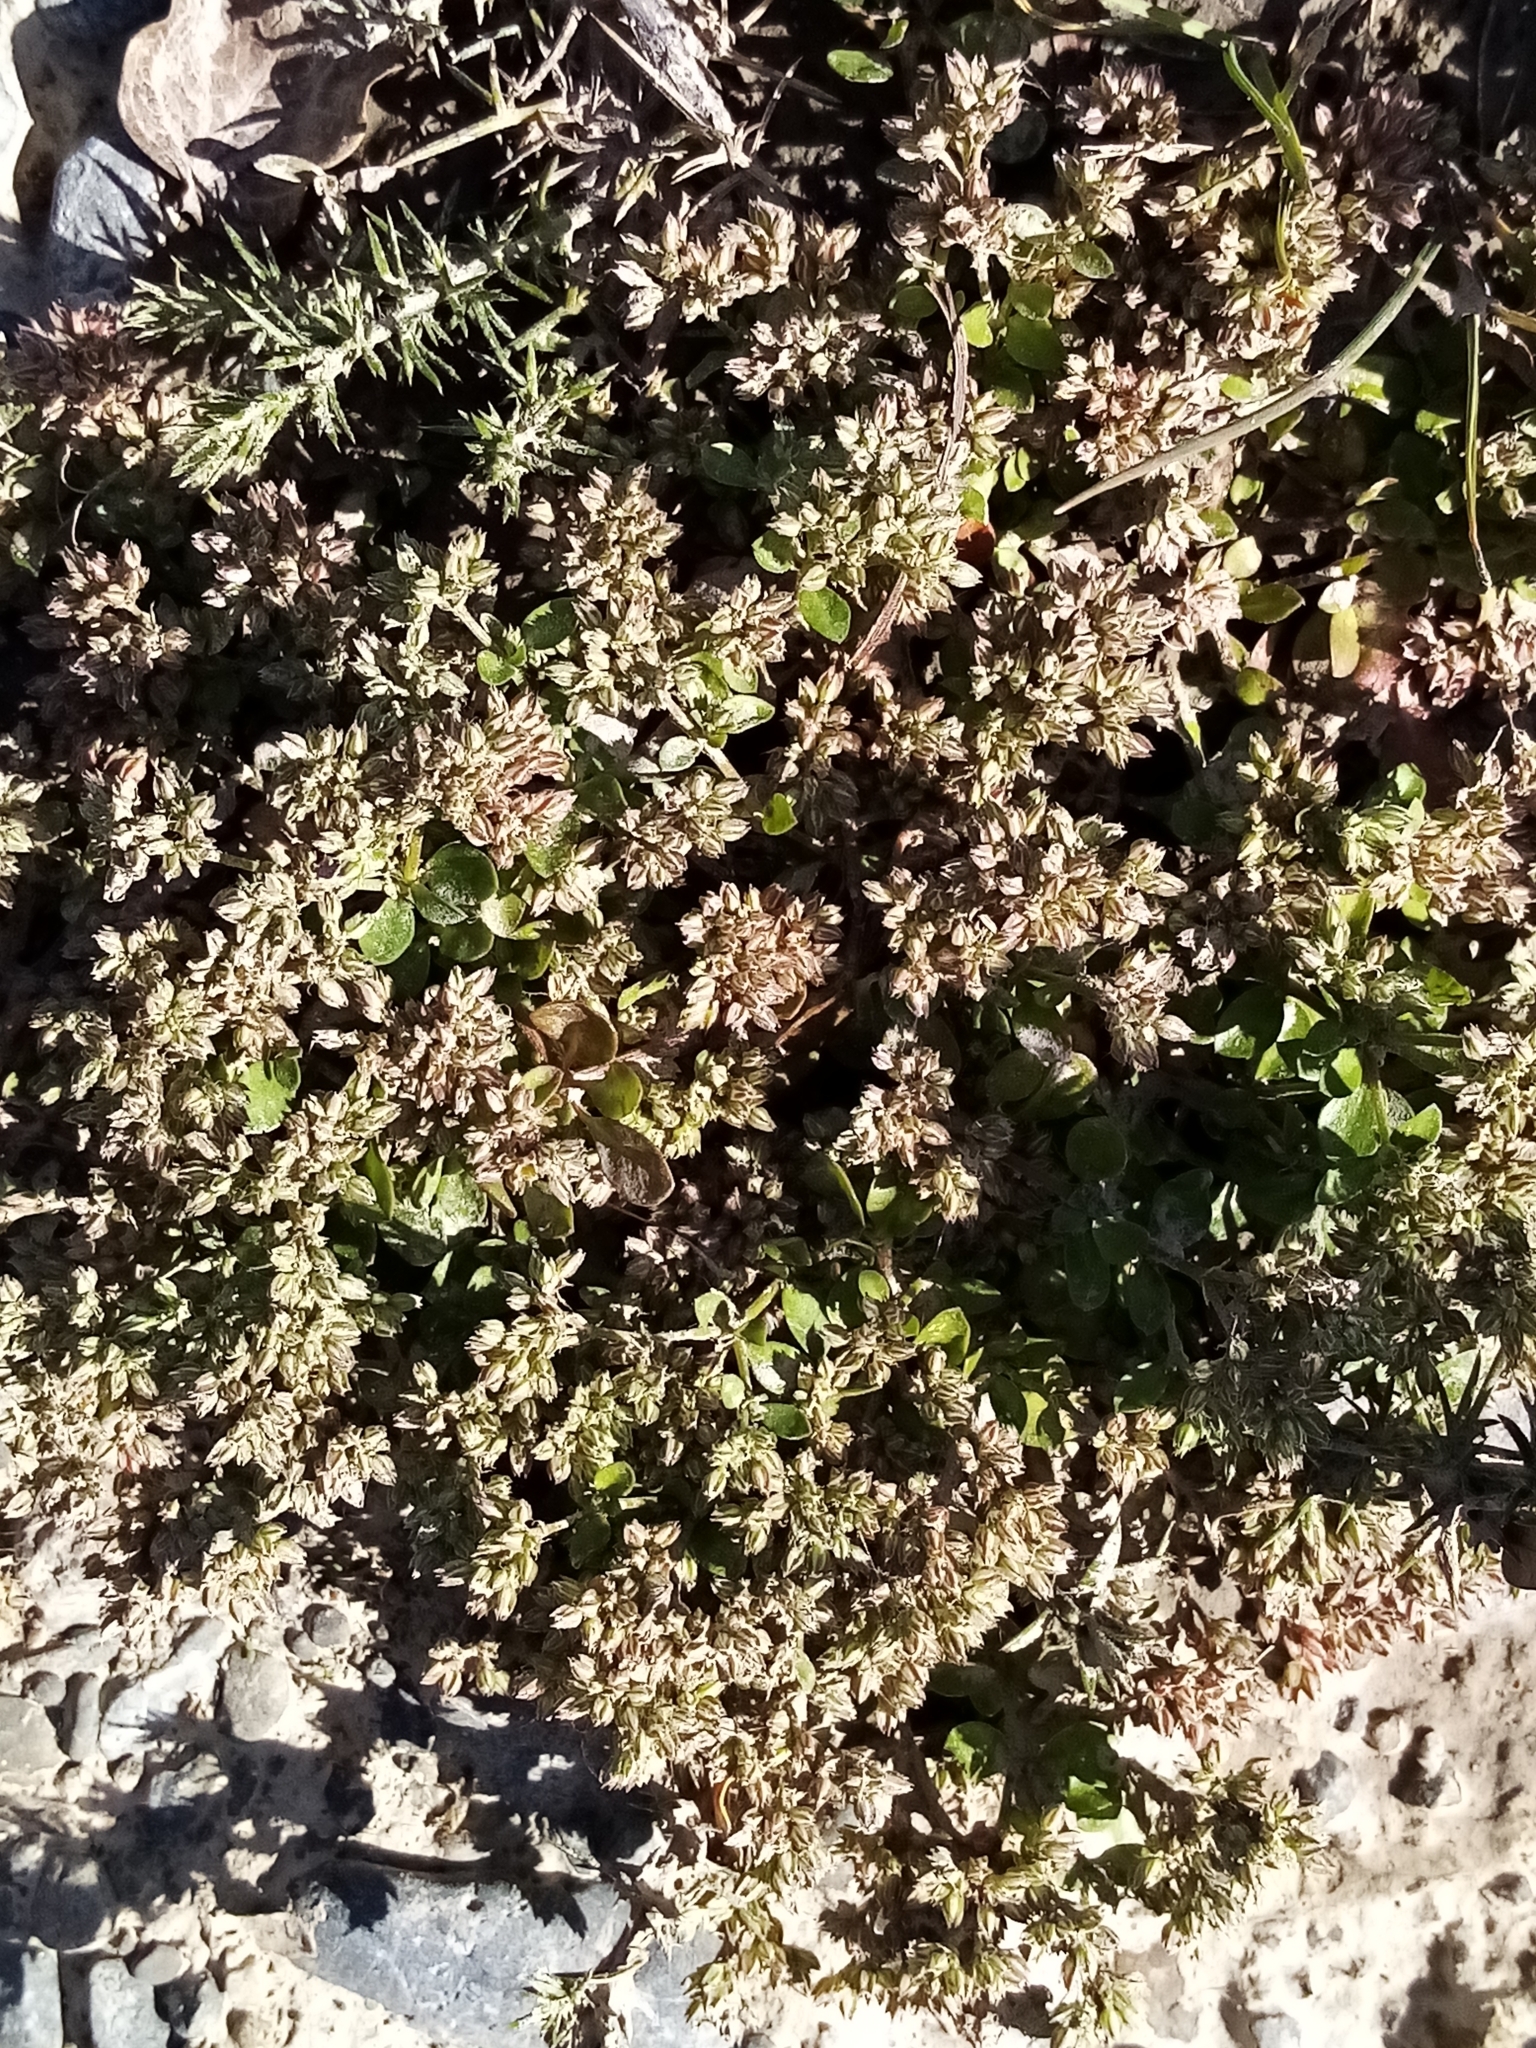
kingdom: Plantae
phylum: Tracheophyta
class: Magnoliopsida
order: Caryophyllales
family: Caryophyllaceae
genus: Polycarpon
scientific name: Polycarpon tetraphyllum
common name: Four-leaved all-seed
